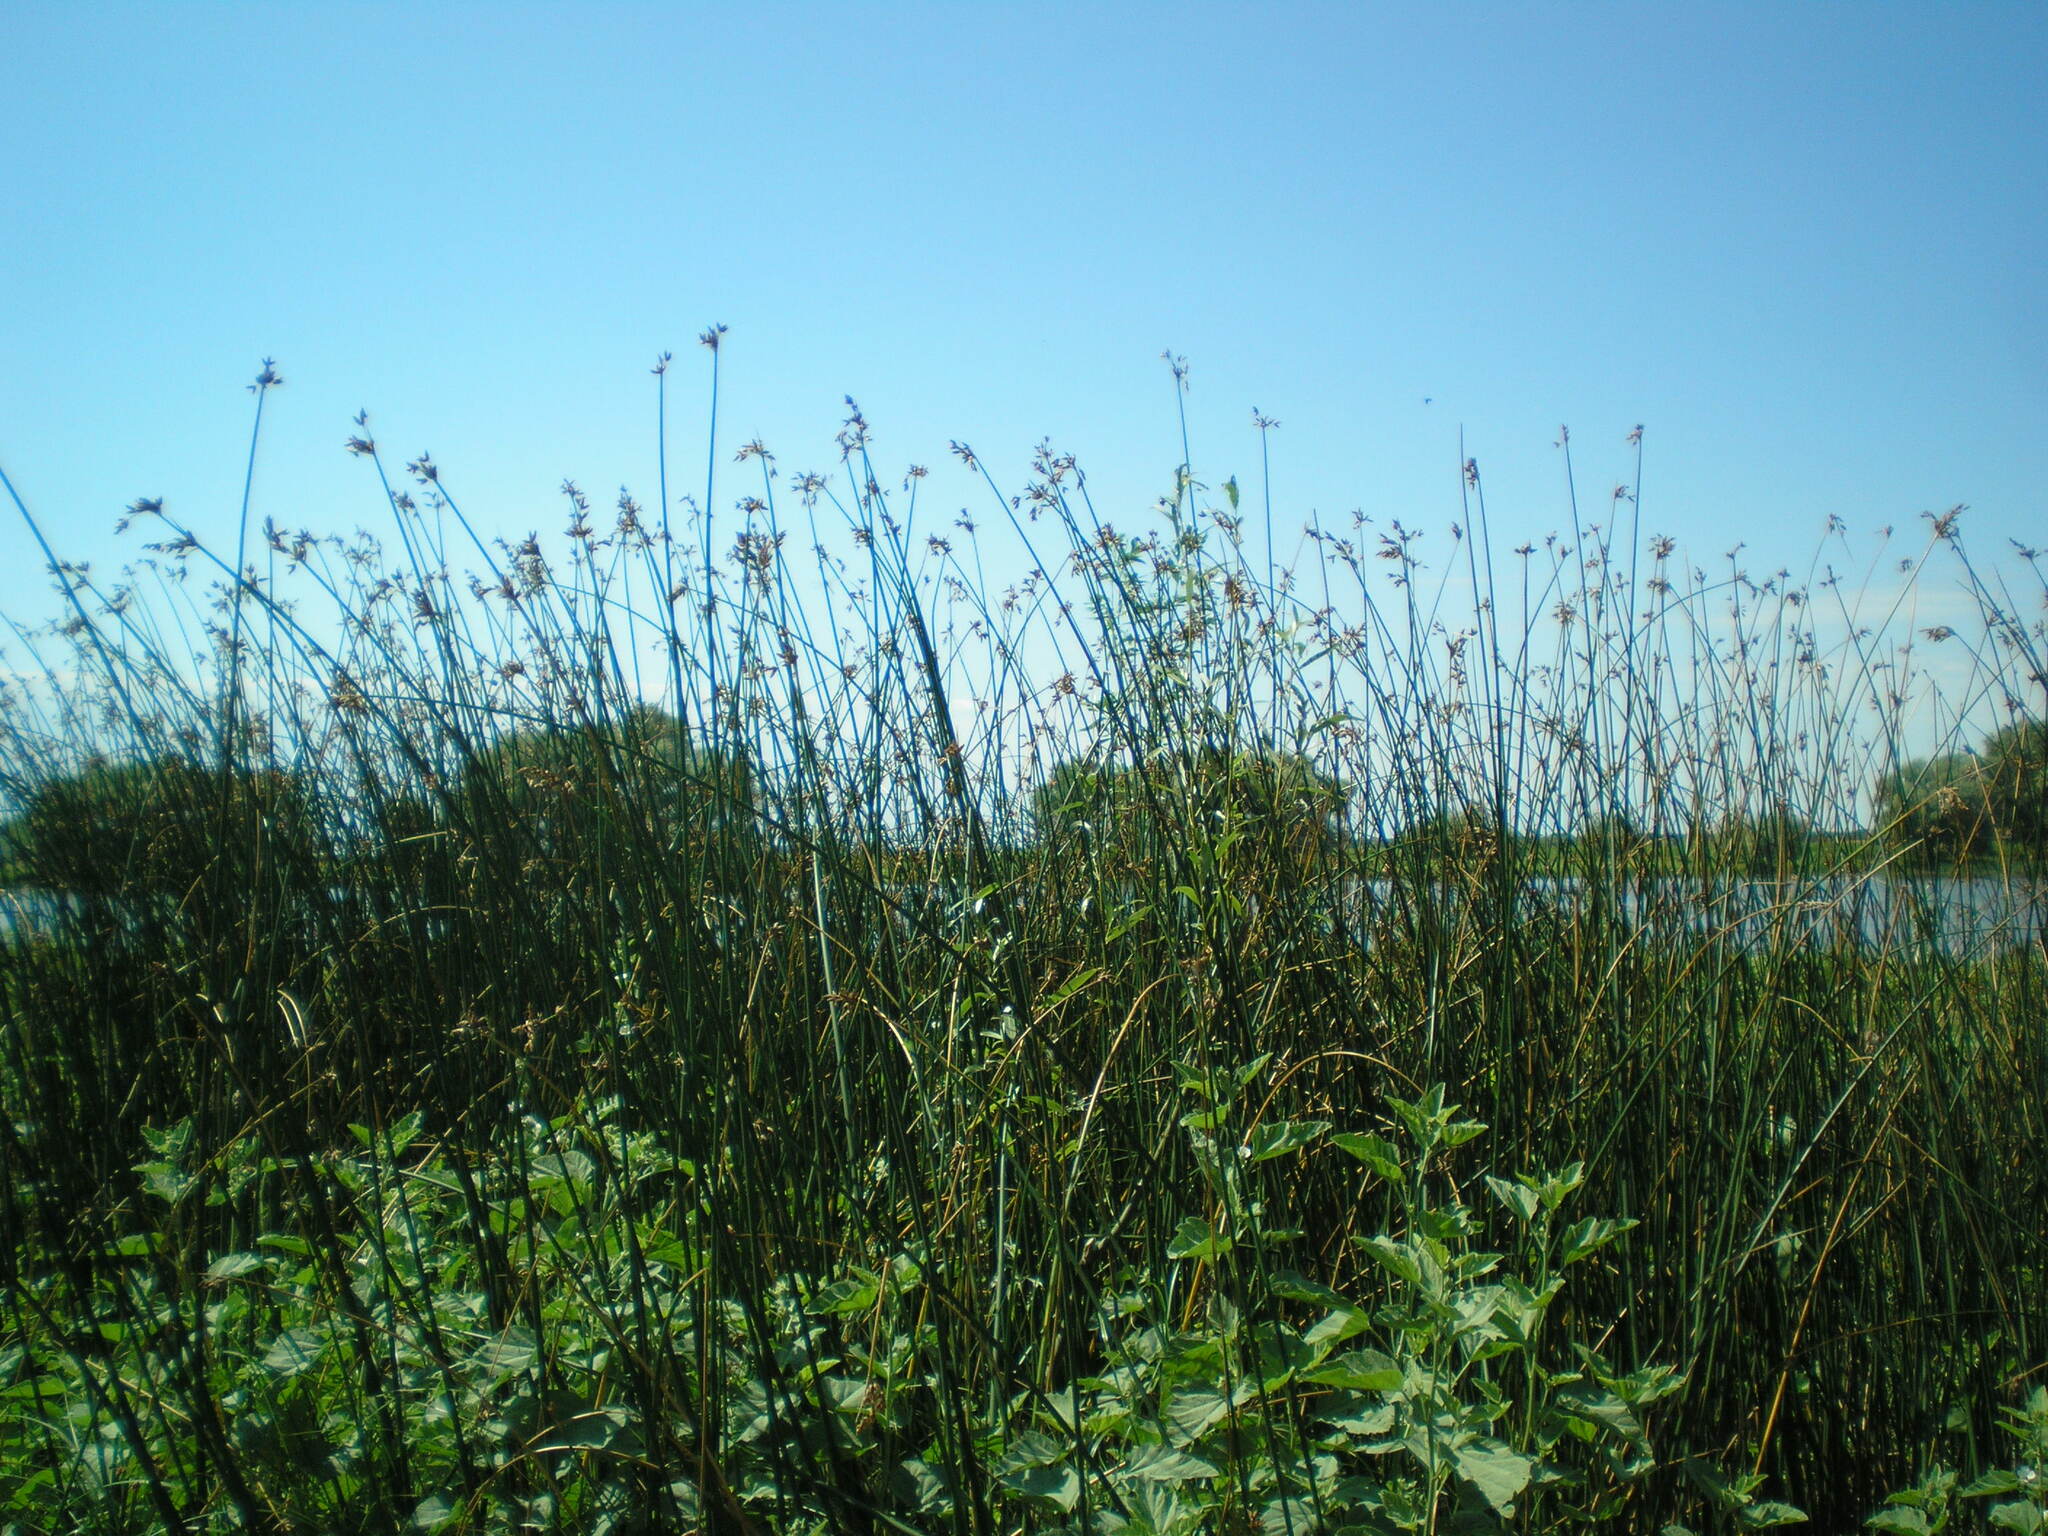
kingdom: Plantae
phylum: Tracheophyta
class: Liliopsida
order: Poales
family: Cyperaceae
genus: Schoenoplectus
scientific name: Schoenoplectus lacustris
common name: Common club-rush
